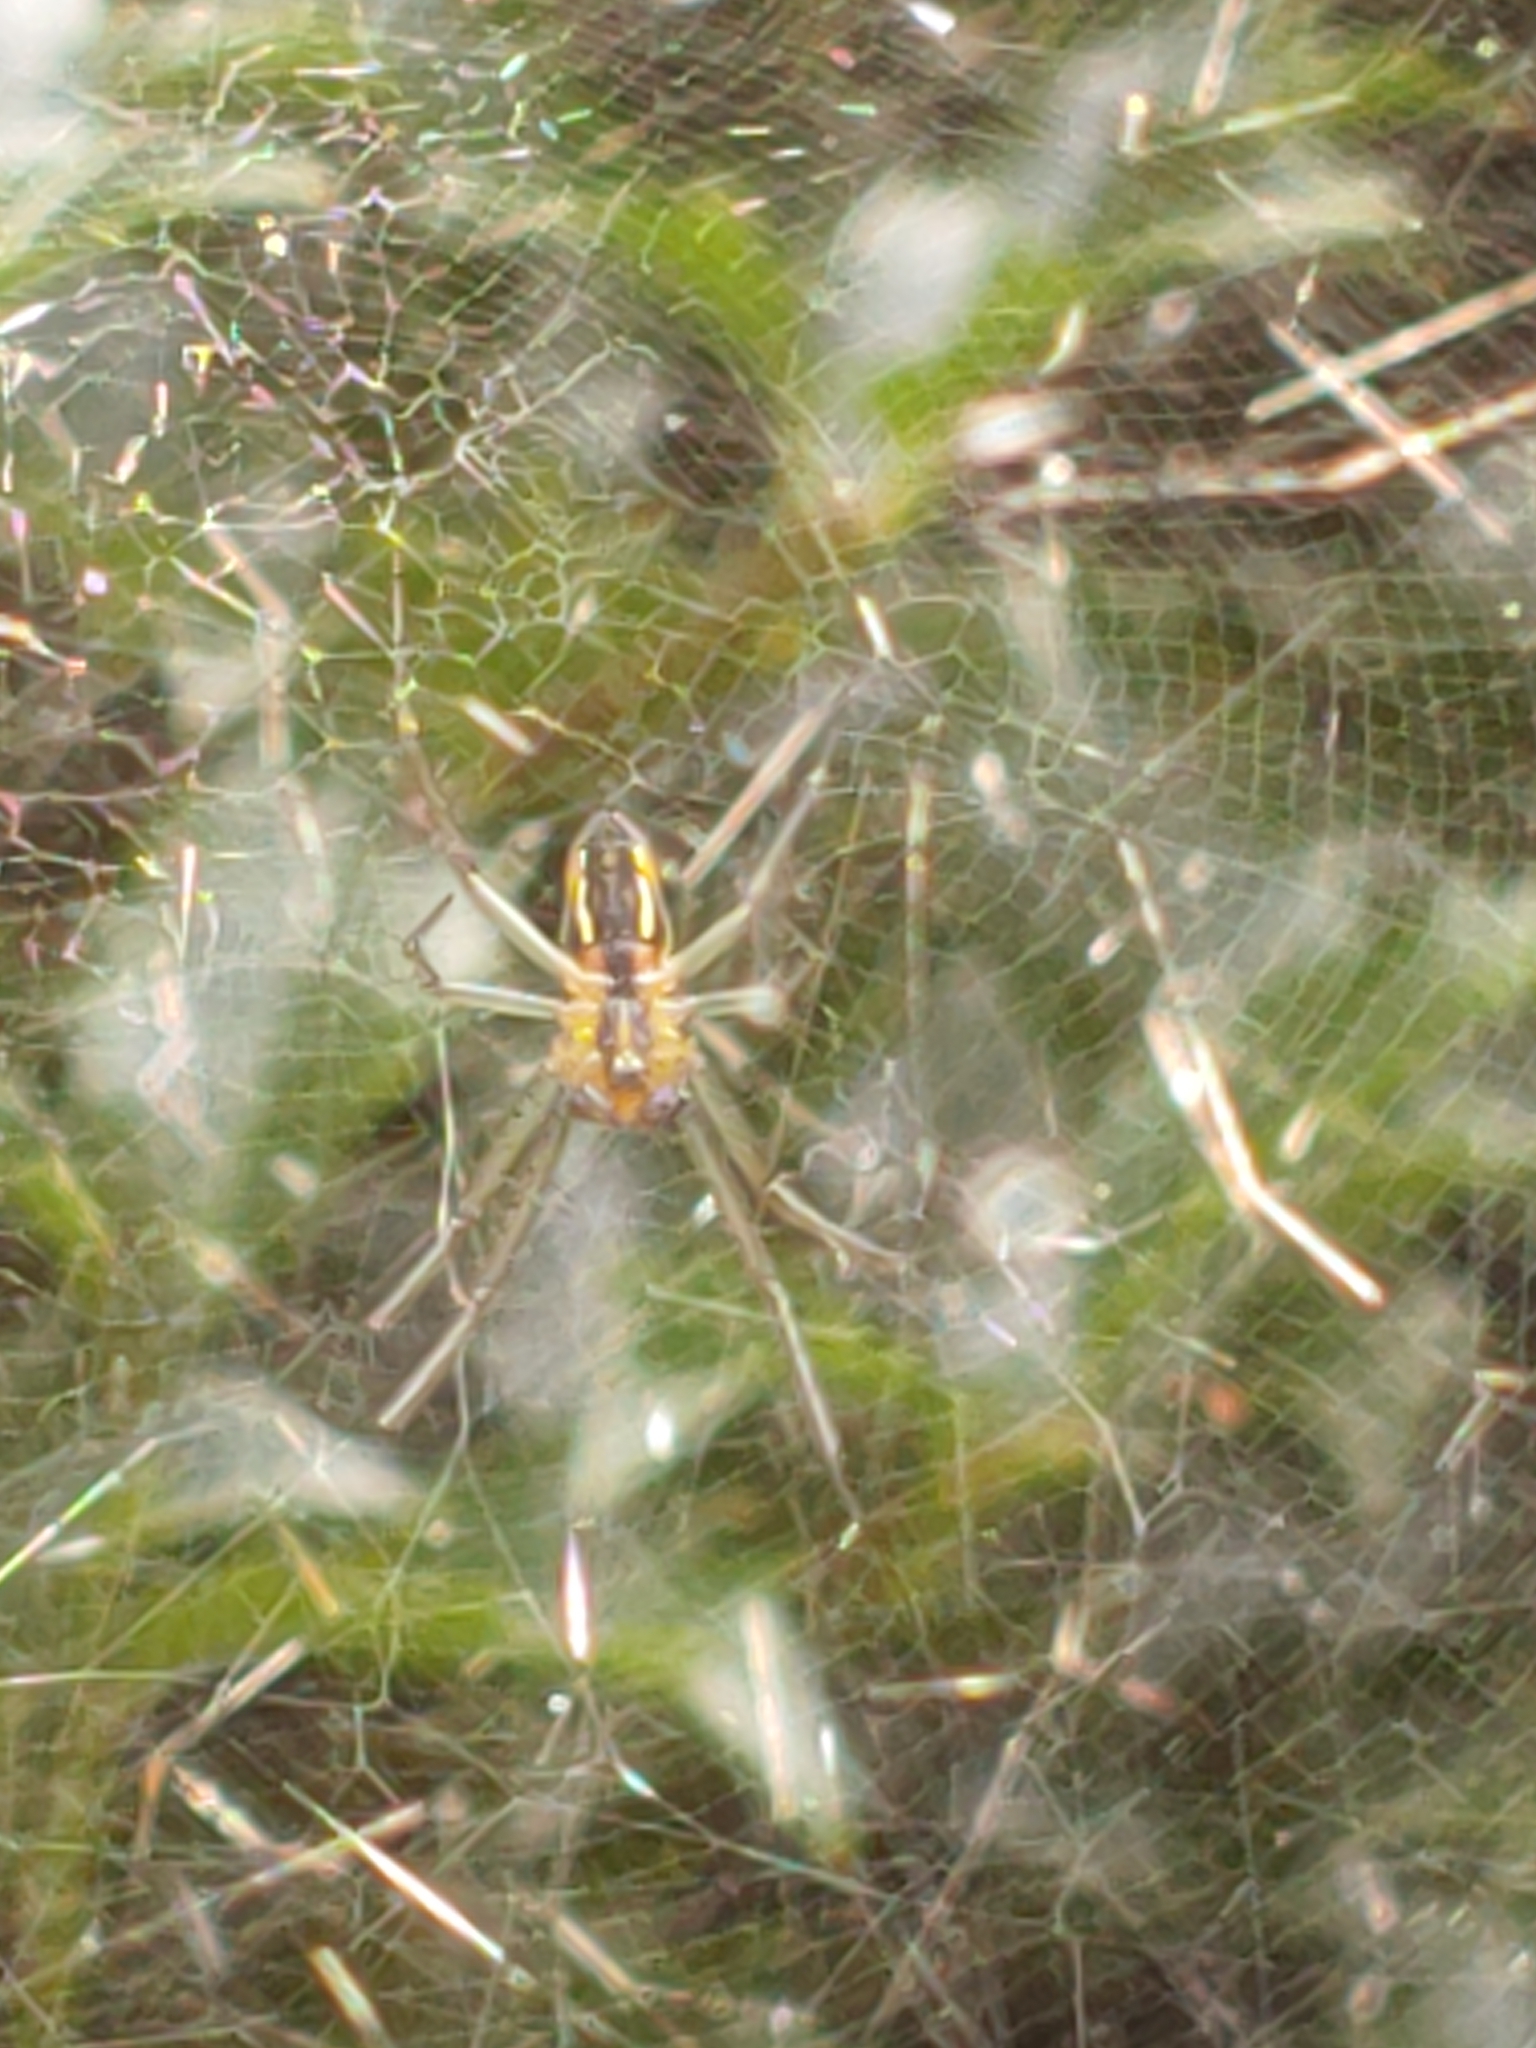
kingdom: Animalia
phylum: Arthropoda
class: Arachnida
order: Araneae
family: Araneidae
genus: Mecynogea
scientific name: Mecynogea lemniscata
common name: Orb weavers
